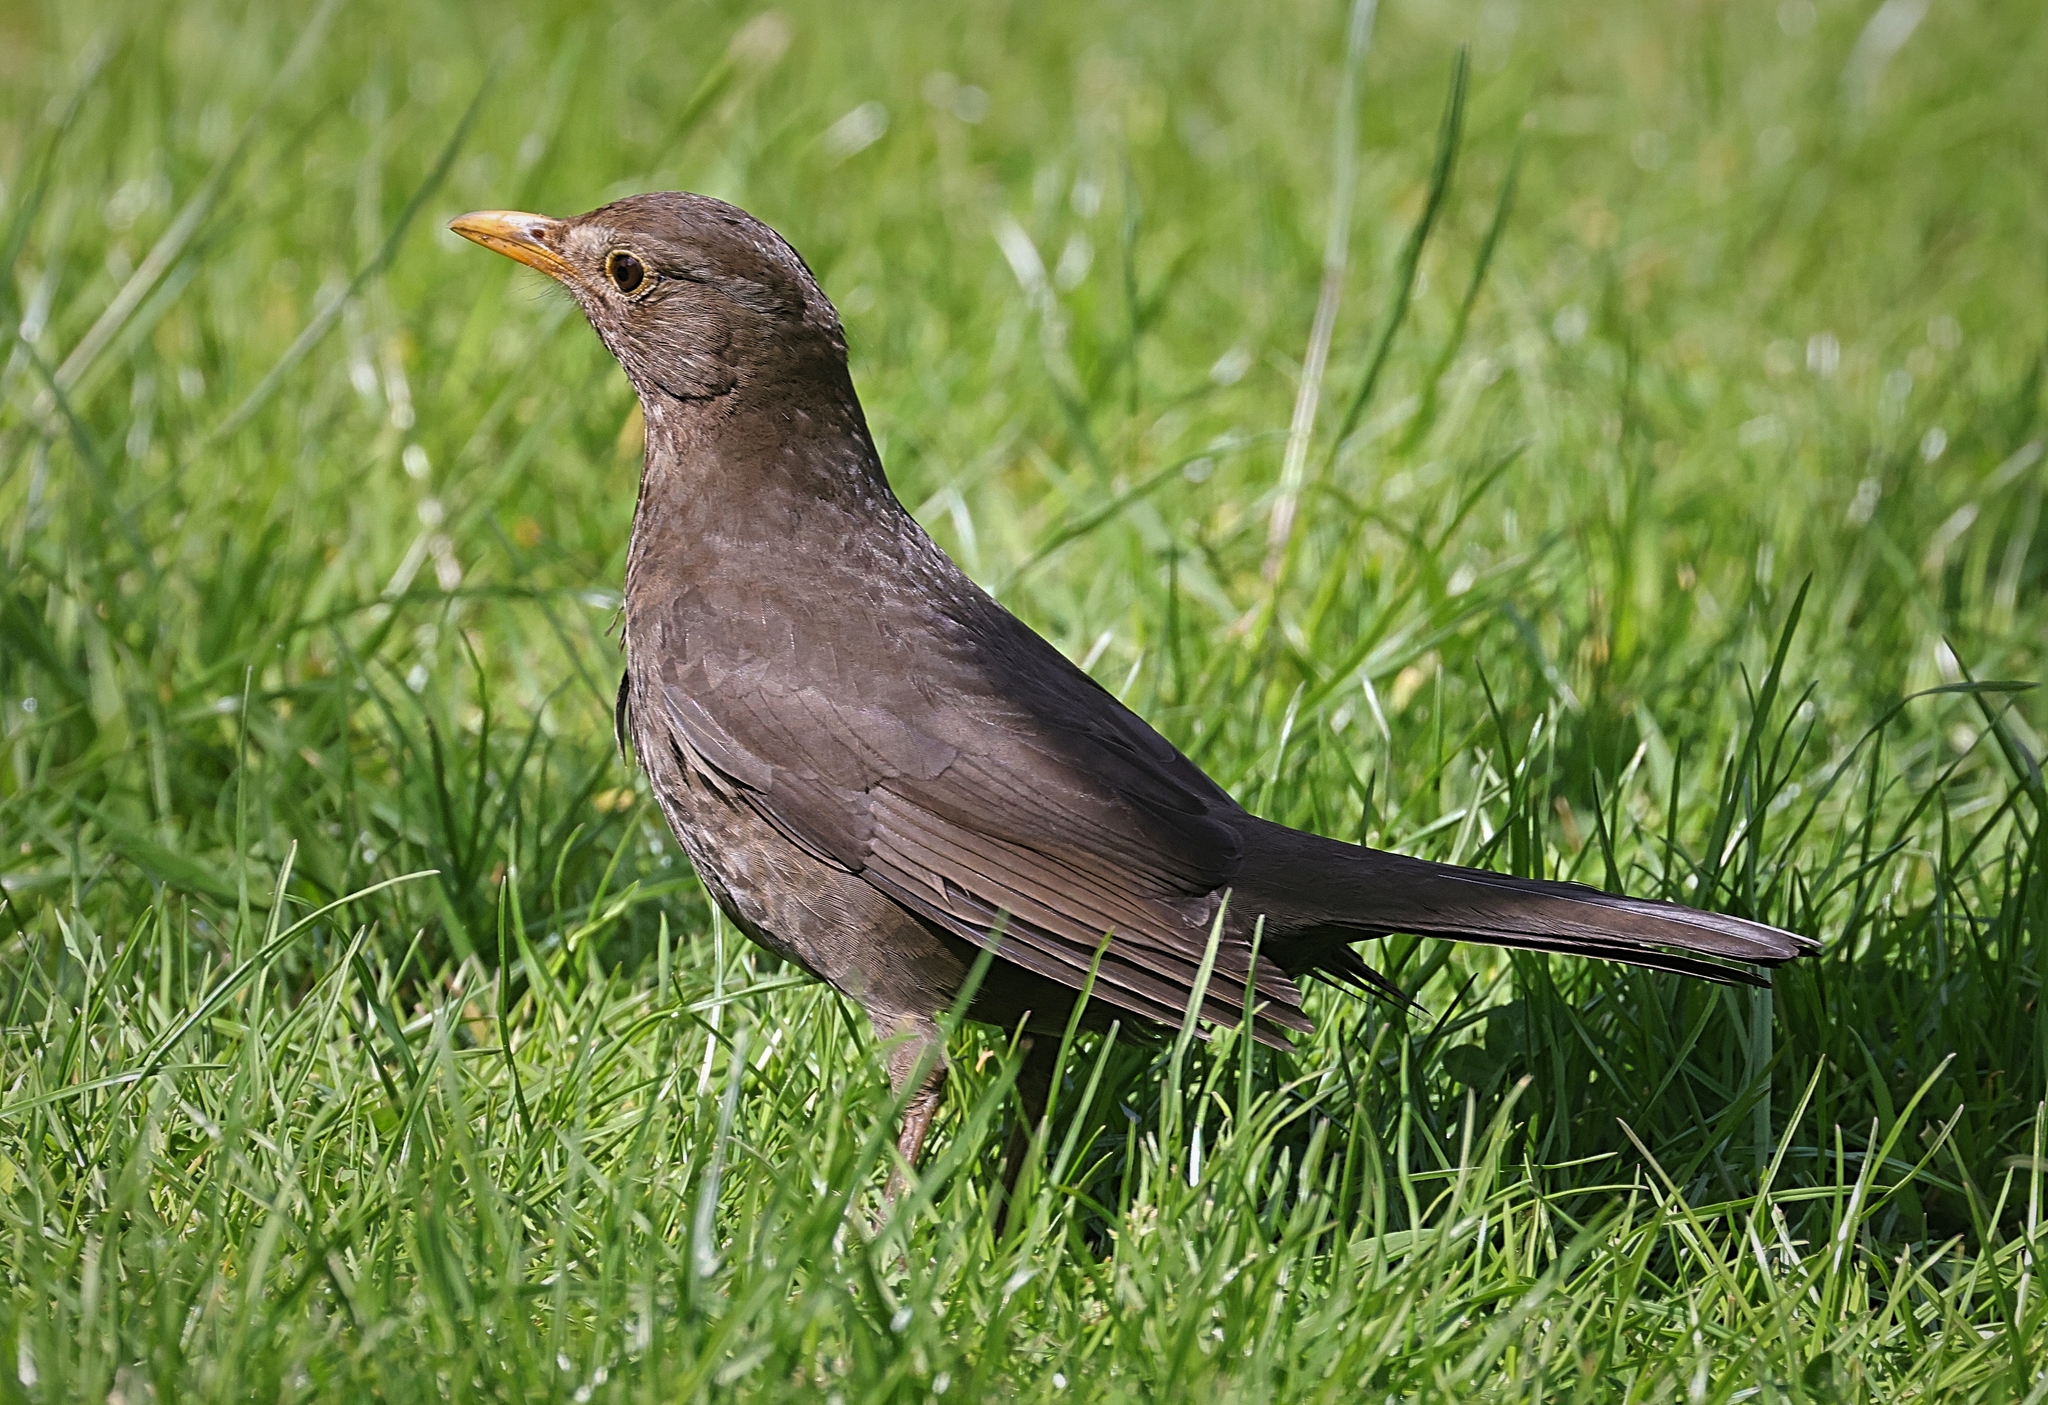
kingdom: Animalia
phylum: Chordata
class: Aves
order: Passeriformes
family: Turdidae
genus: Turdus
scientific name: Turdus merula
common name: Common blackbird
